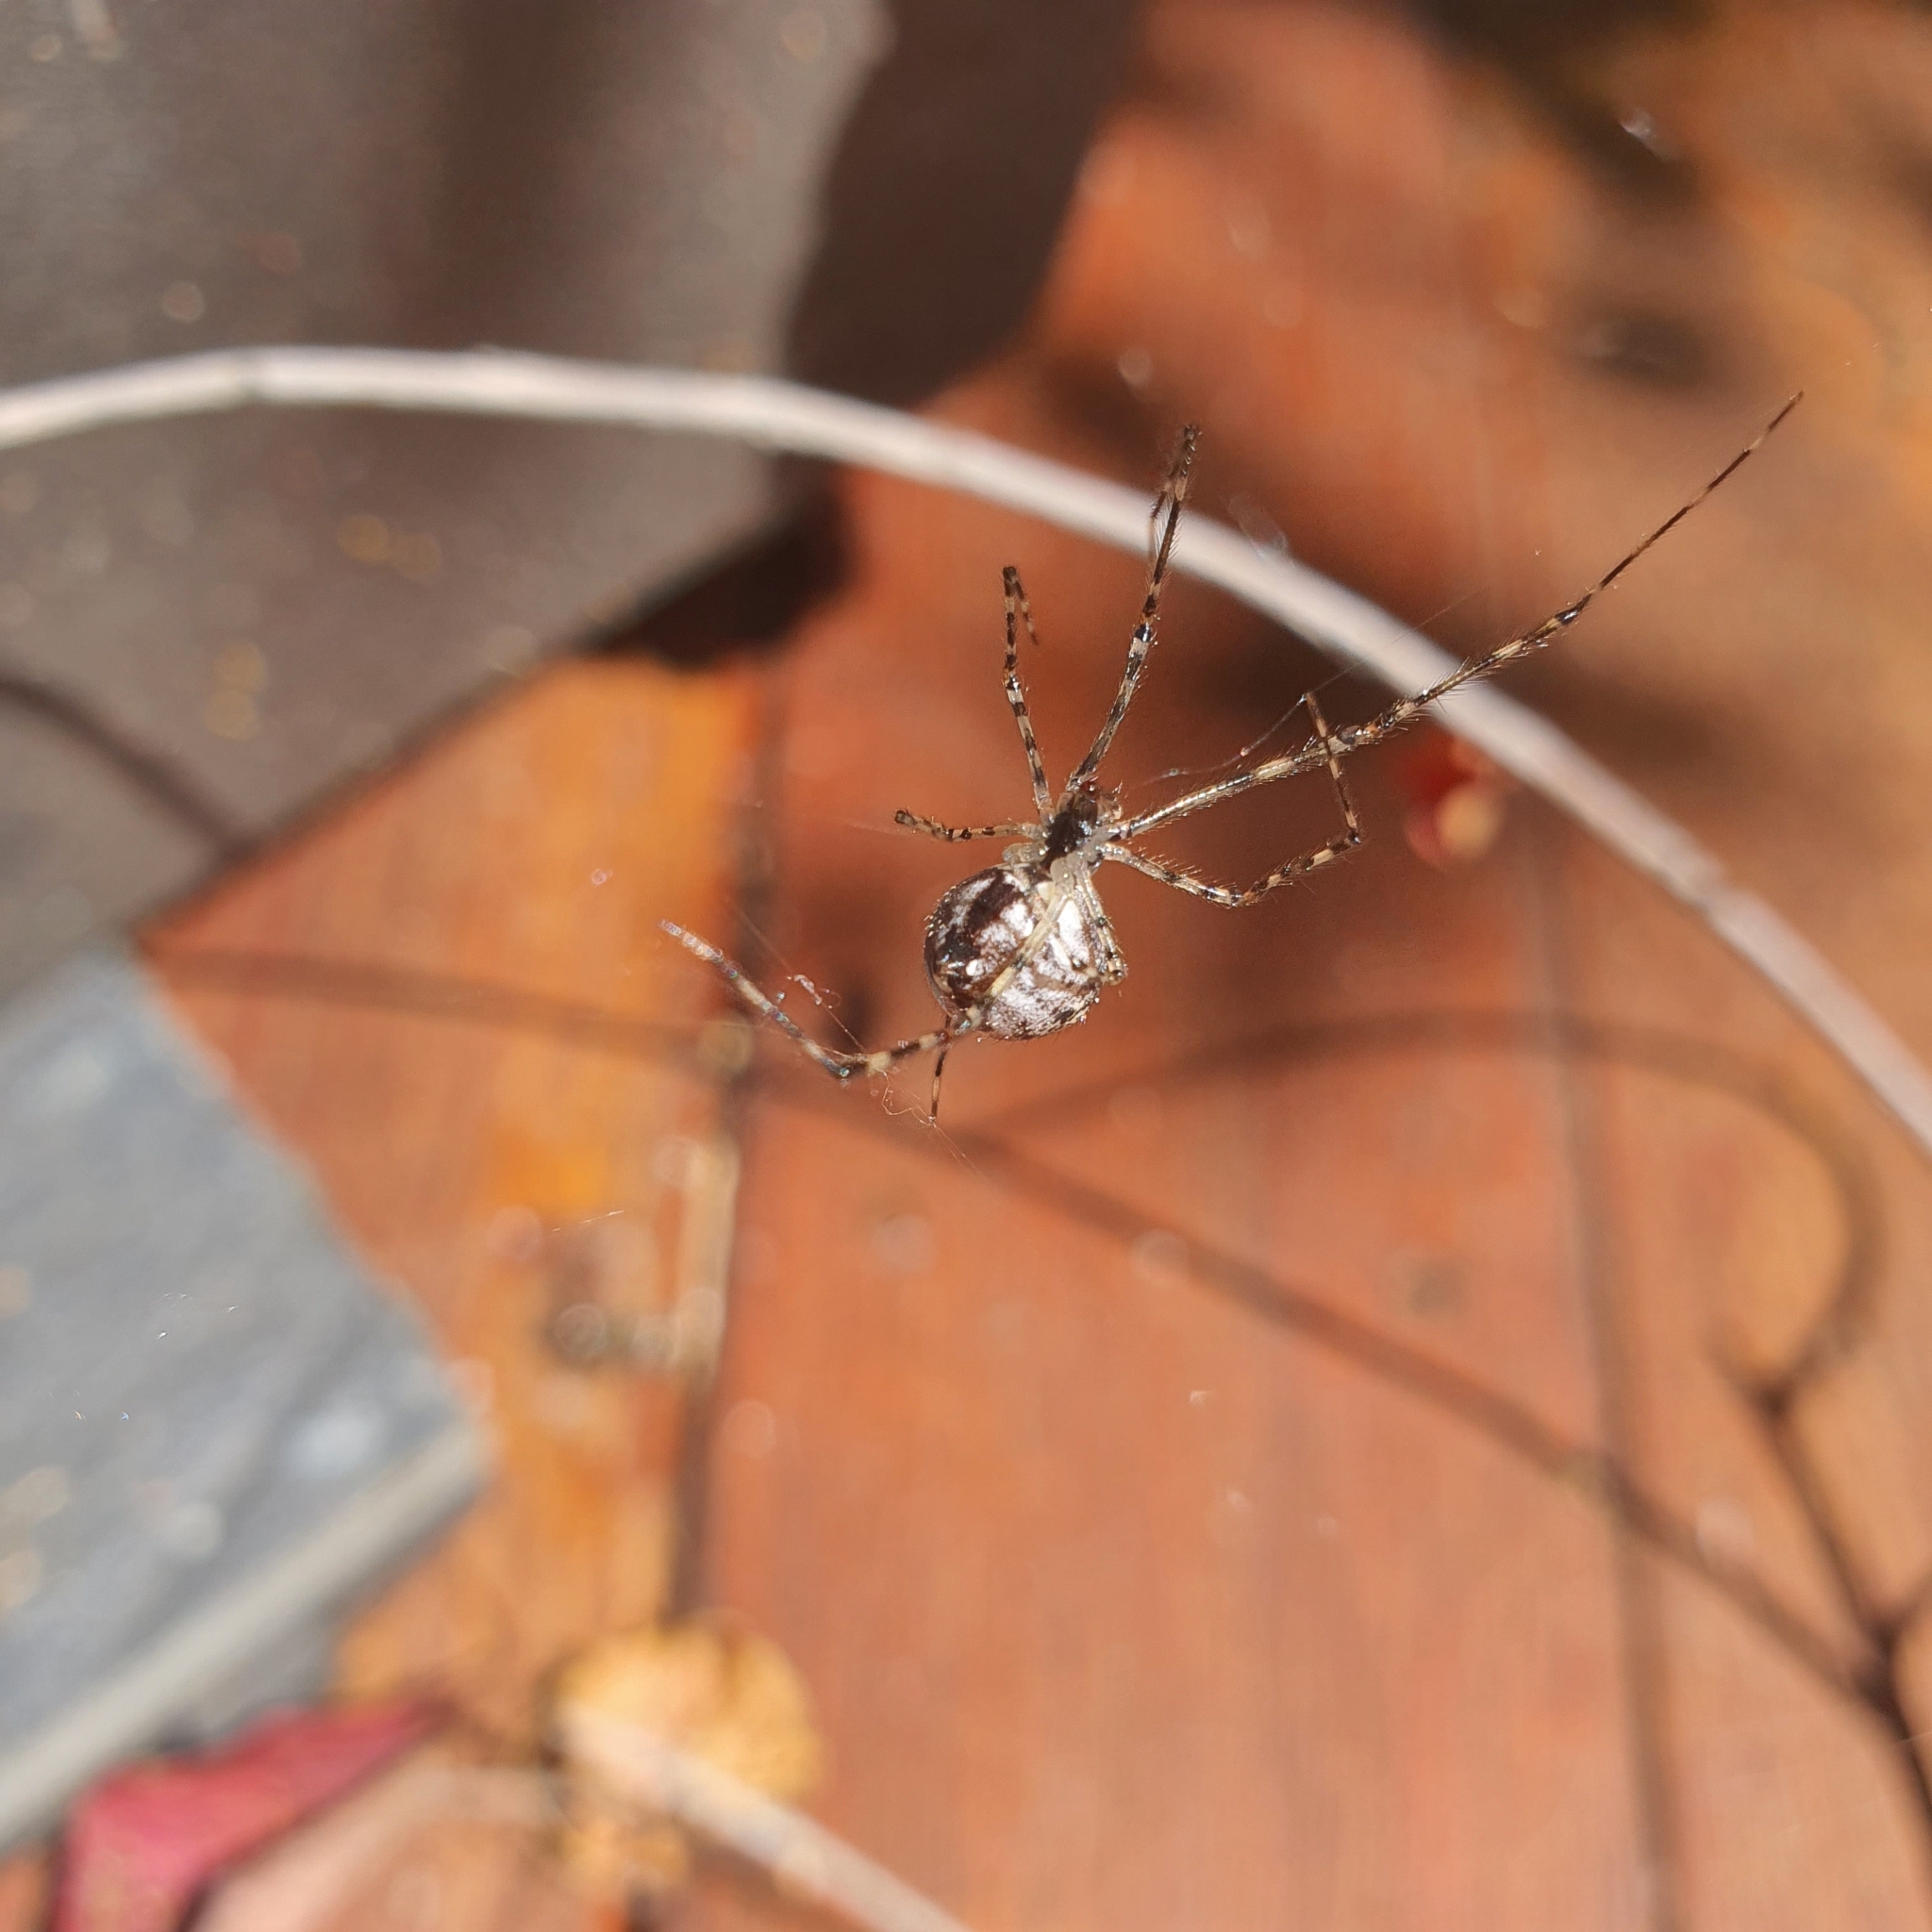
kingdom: Animalia
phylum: Arthropoda
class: Arachnida
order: Araneae
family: Theridiidae
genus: Cryptachaea
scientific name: Cryptachaea gigantipes
